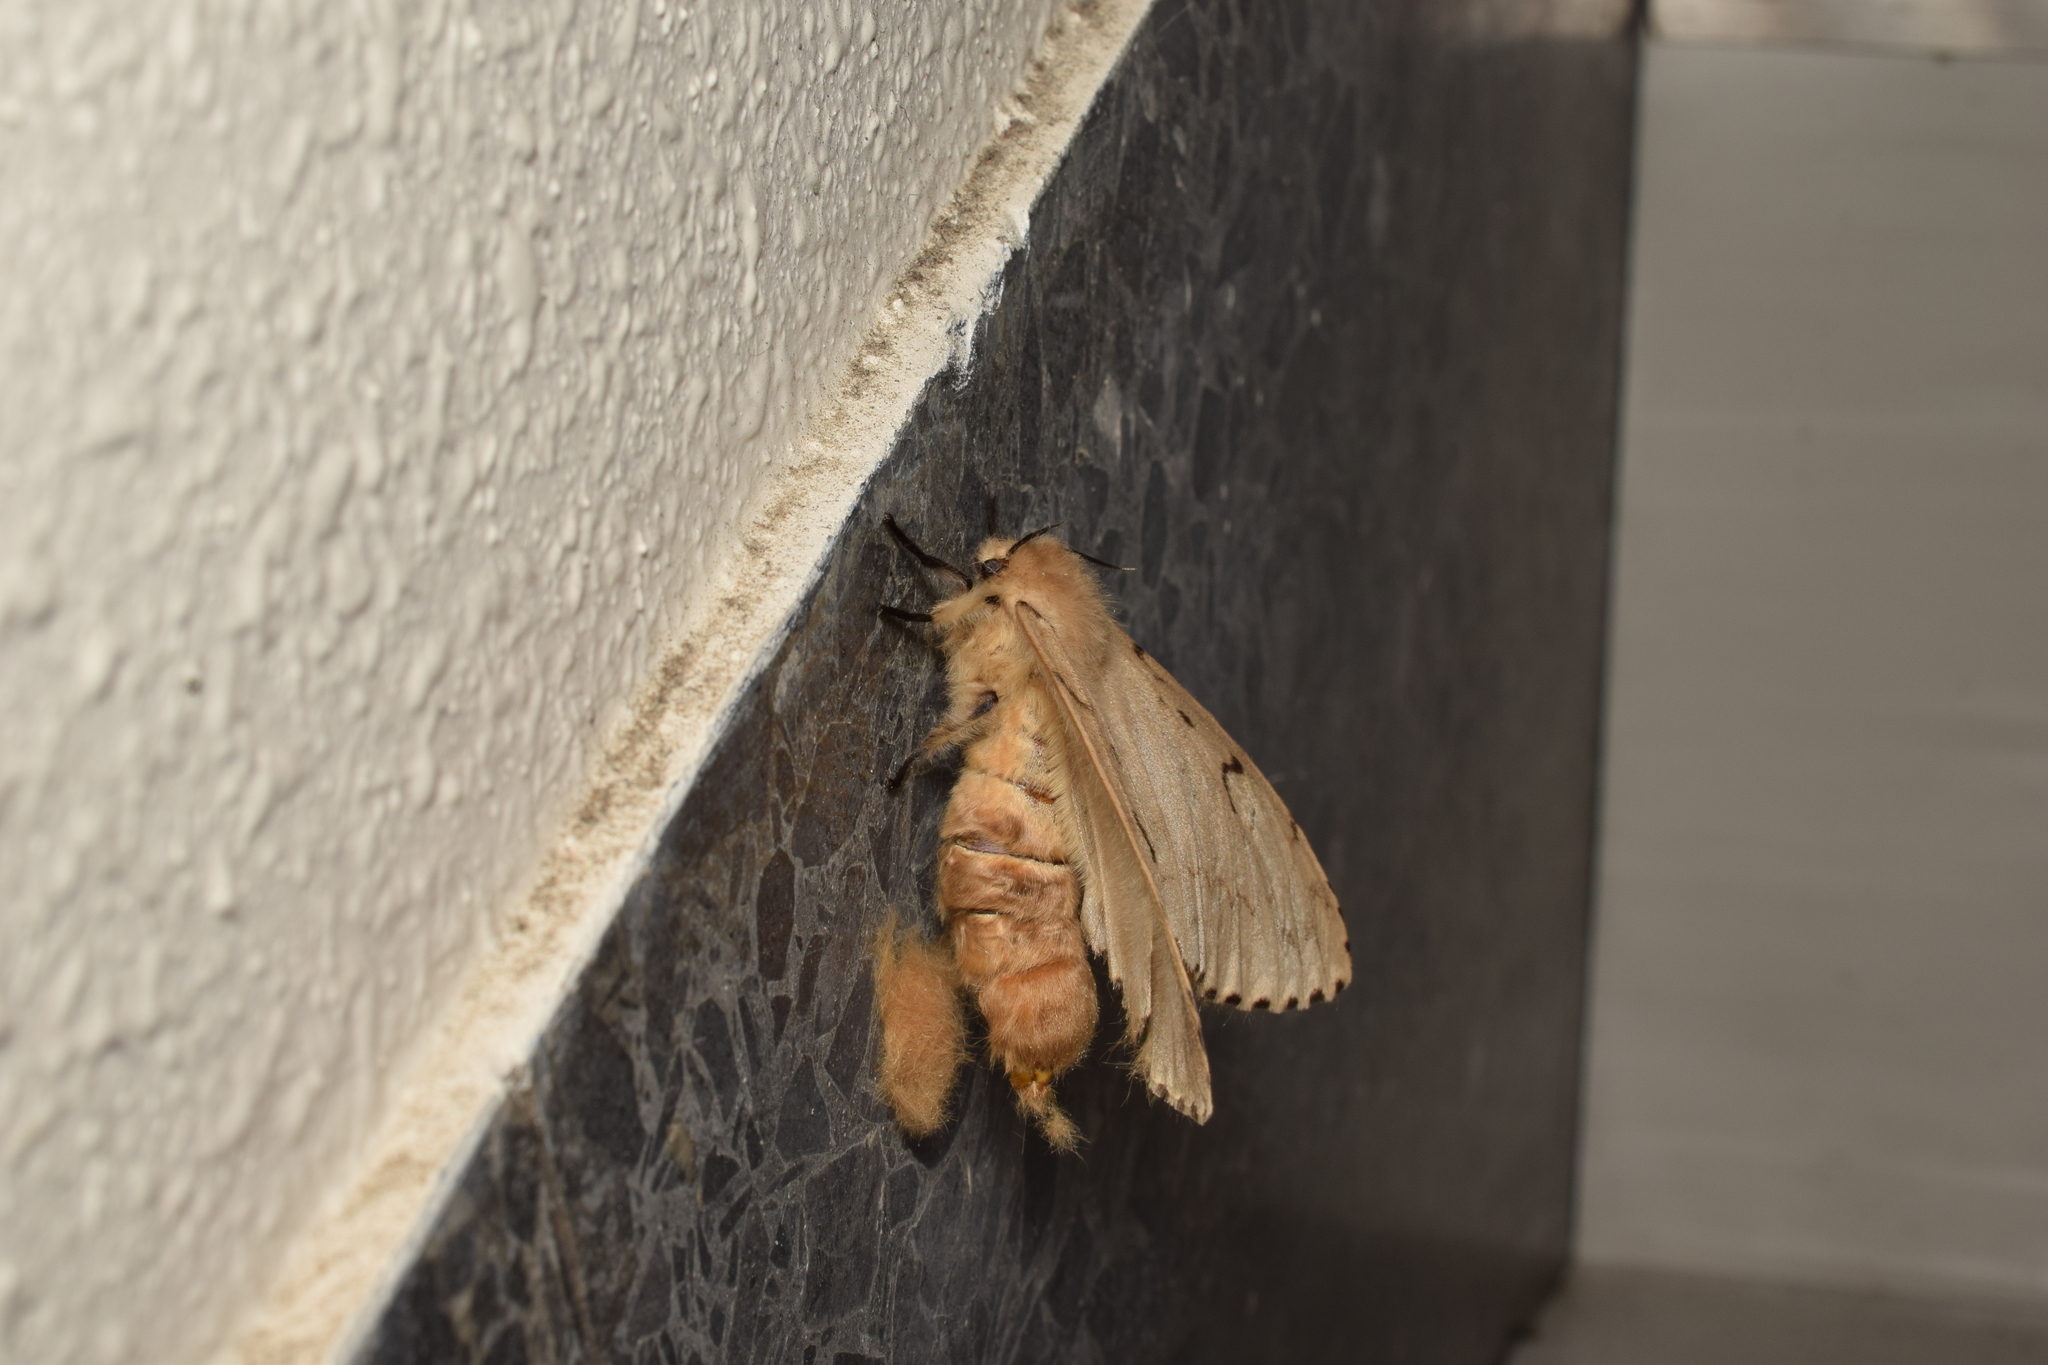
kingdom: Animalia
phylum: Arthropoda
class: Insecta
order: Lepidoptera
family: Erebidae
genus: Lymantria
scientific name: Lymantria dispar
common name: Gypsy moth
